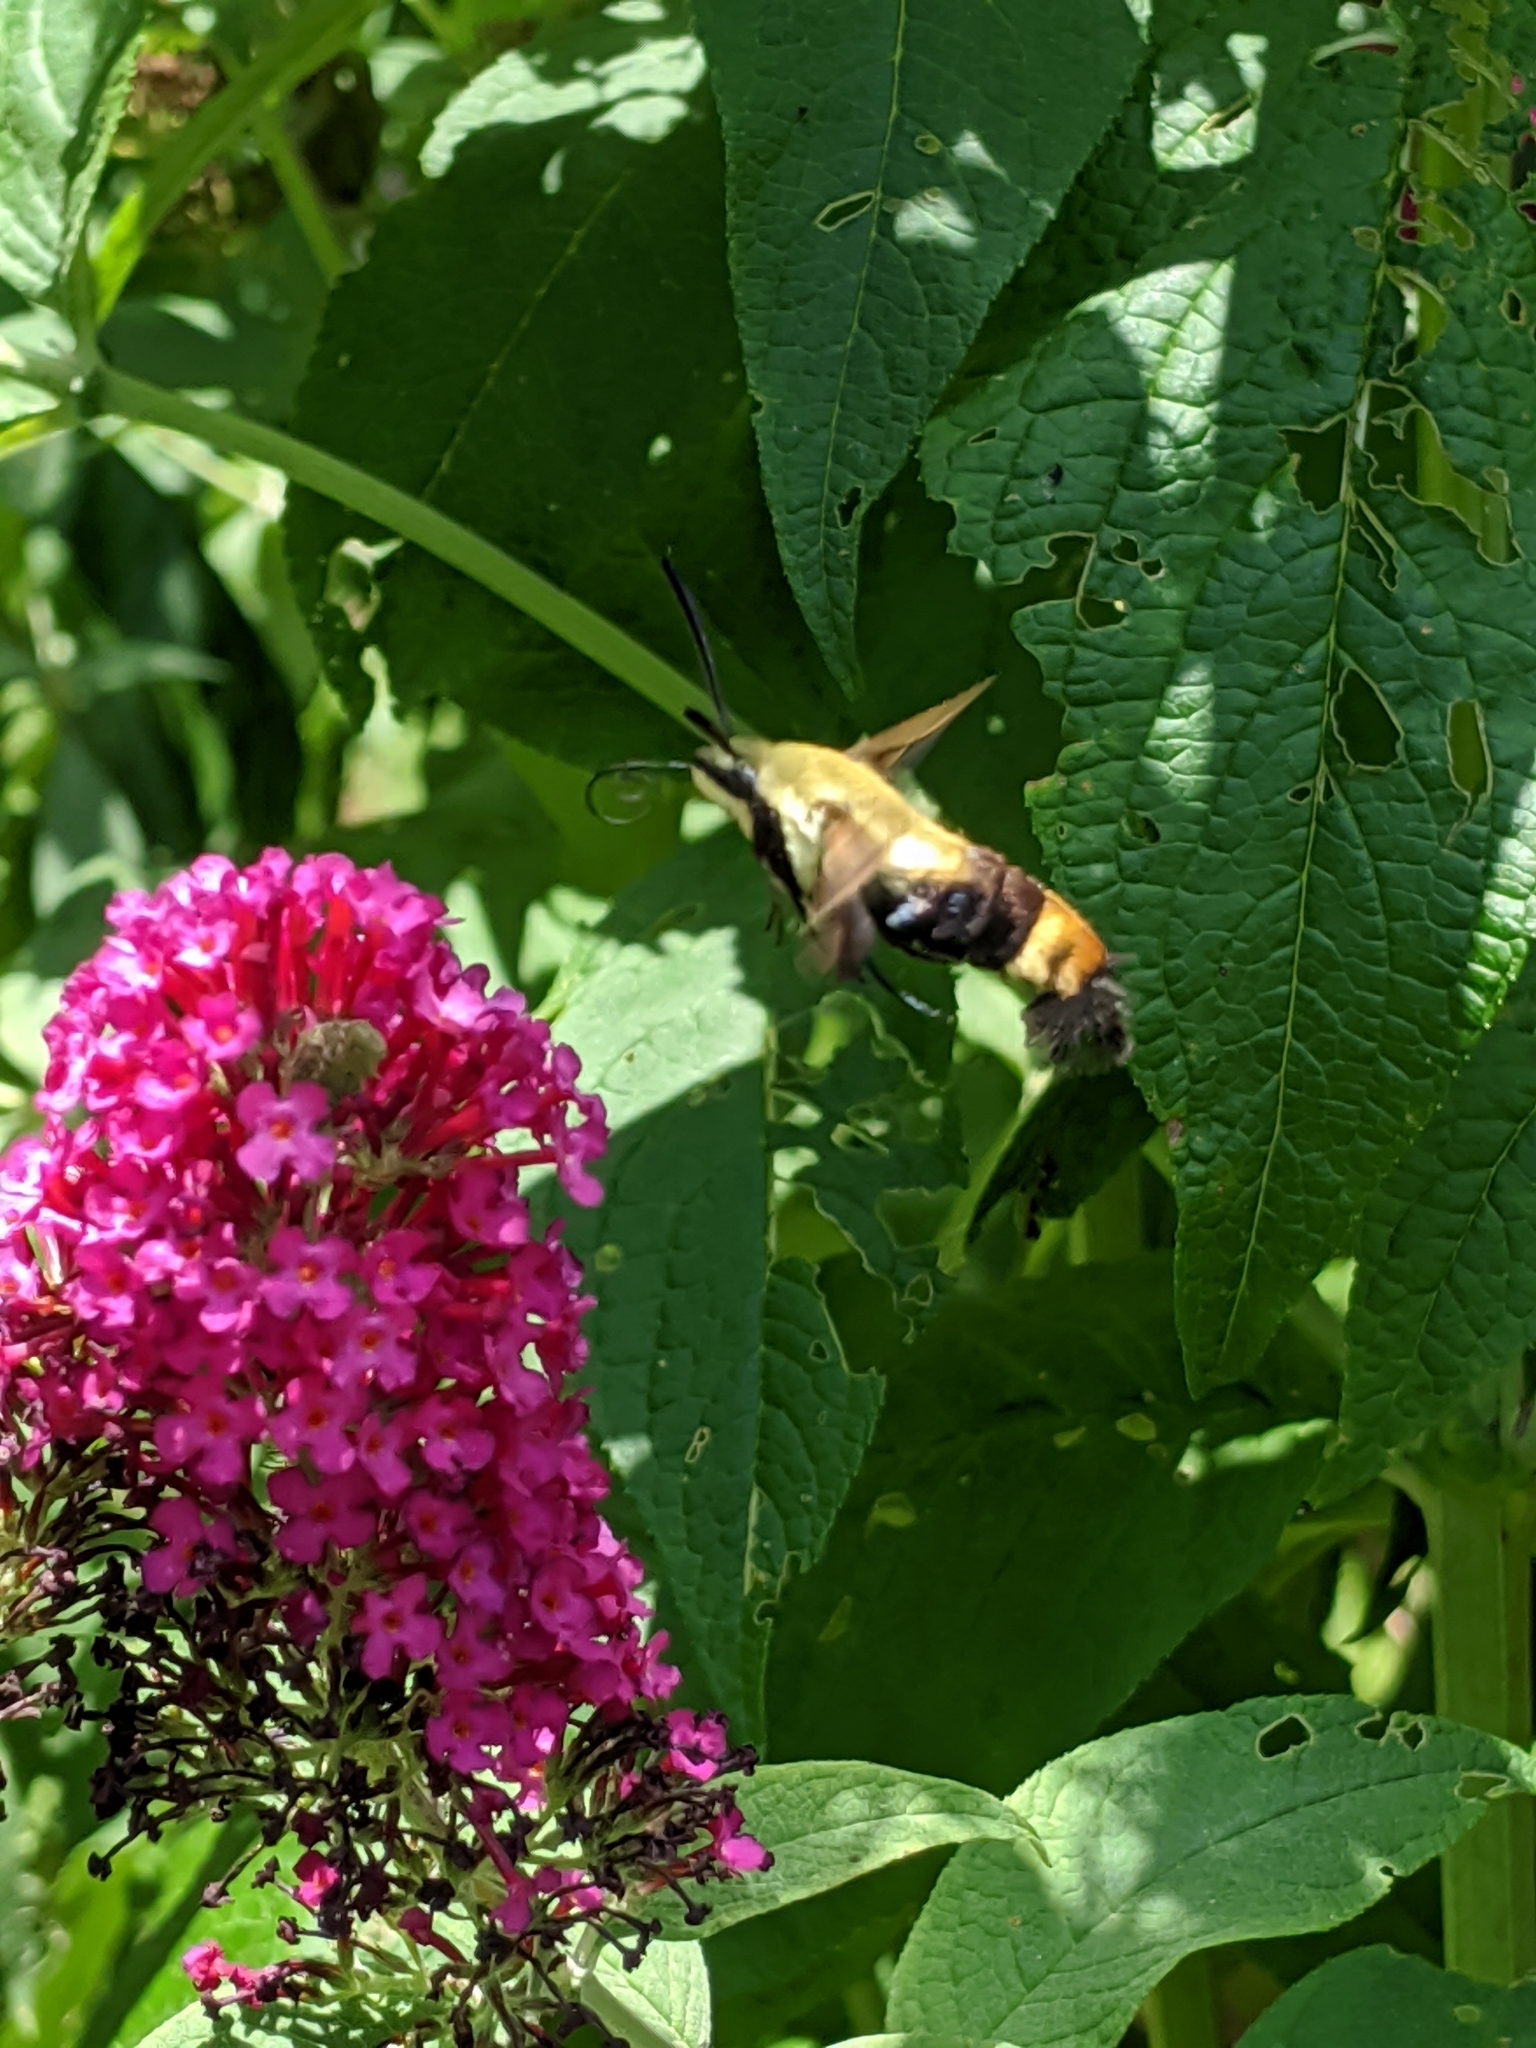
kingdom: Animalia
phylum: Arthropoda
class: Insecta
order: Lepidoptera
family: Sphingidae
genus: Hemaris
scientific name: Hemaris diffinis
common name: Bumblebee moth
